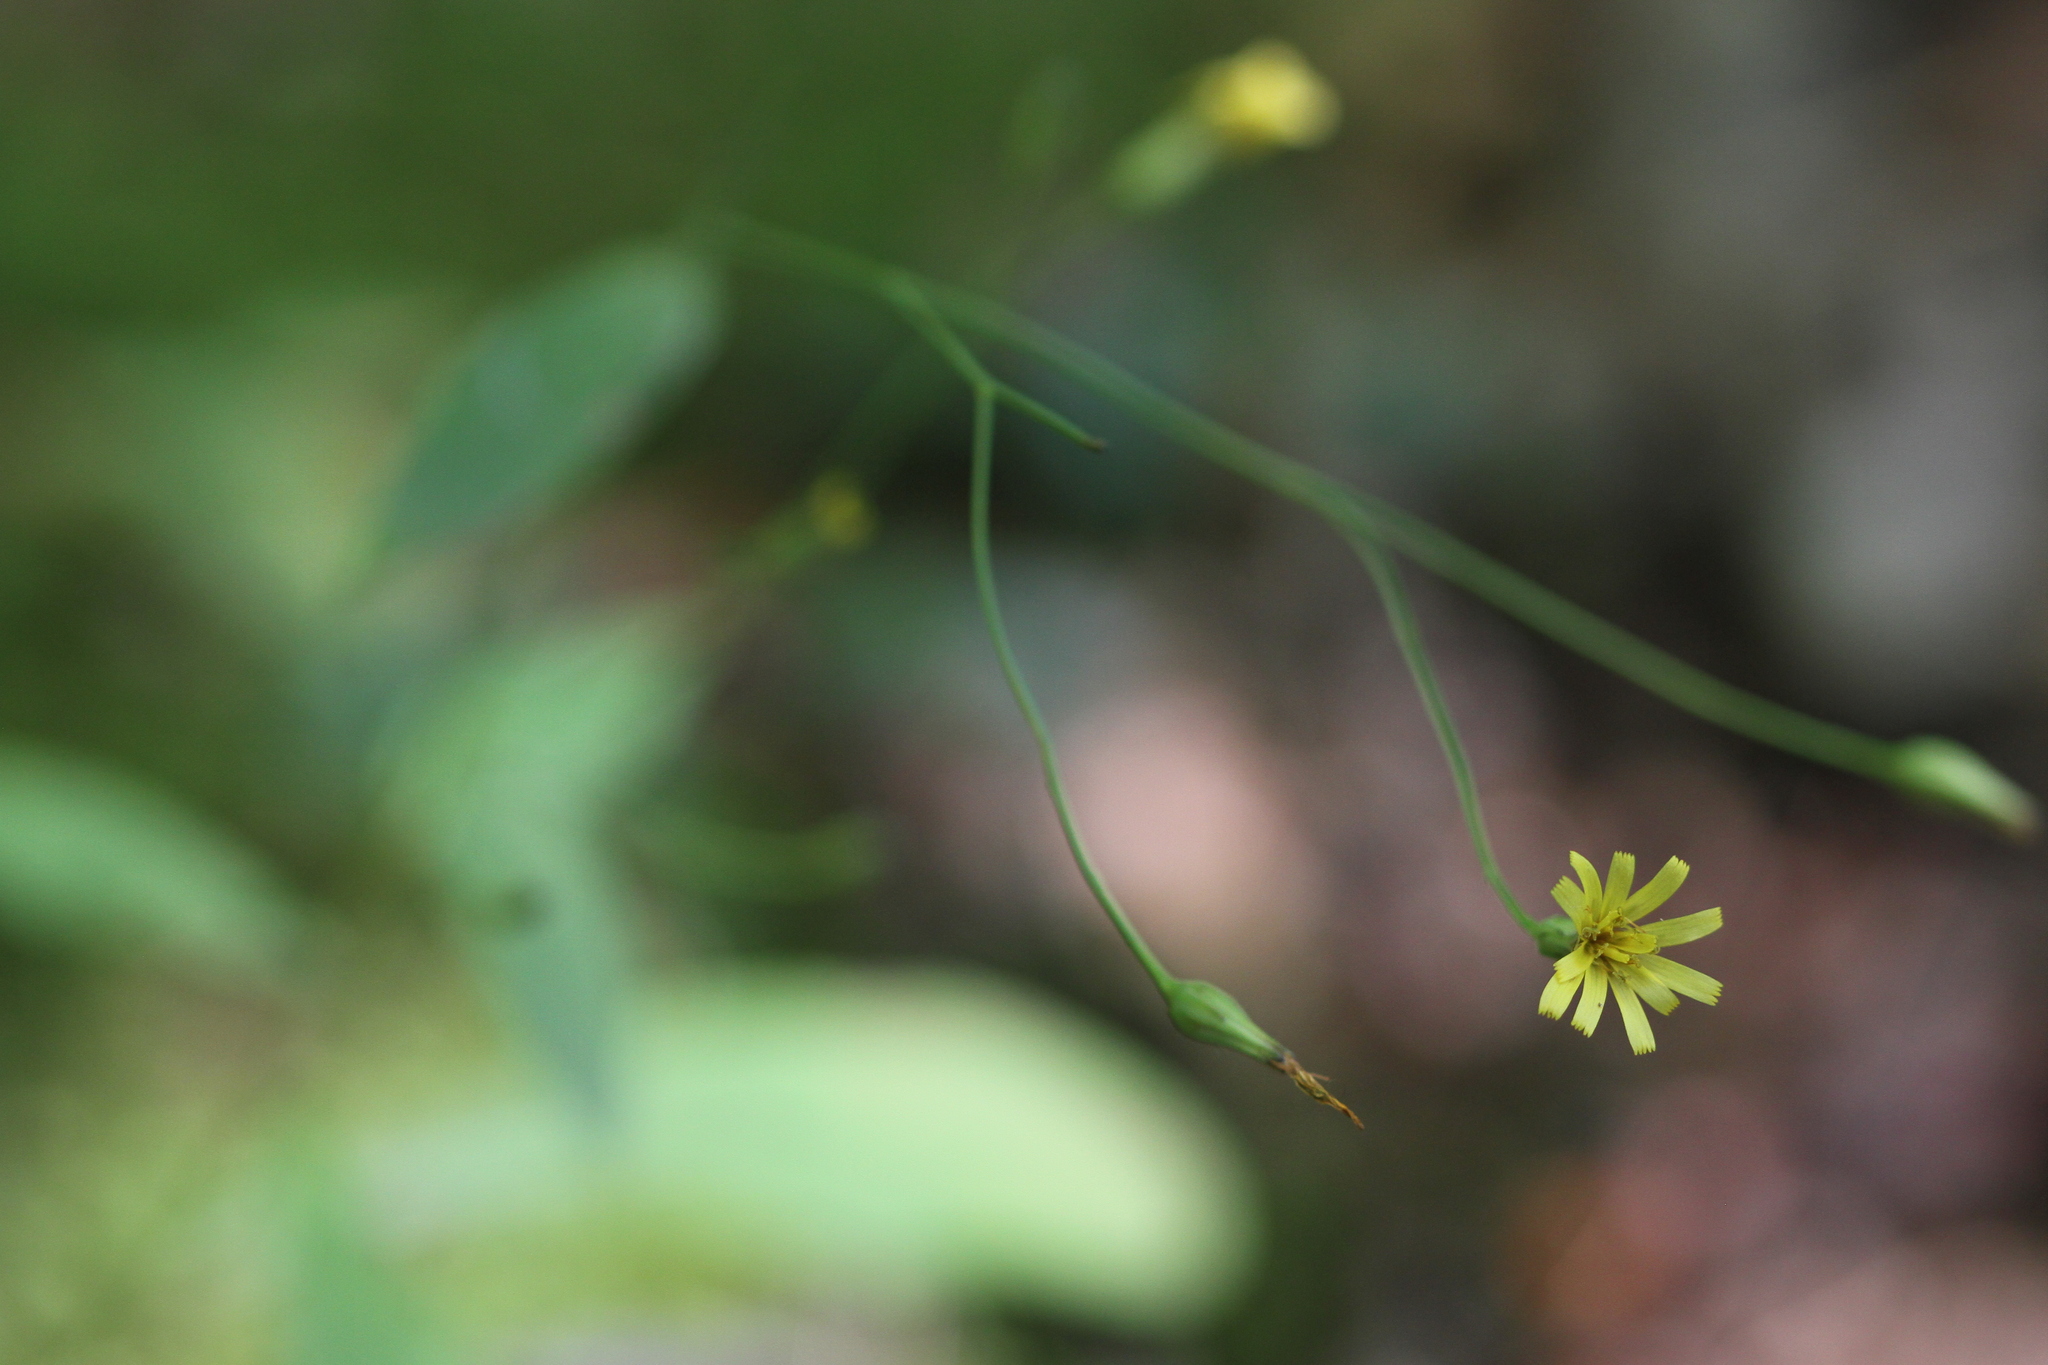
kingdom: Plantae
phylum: Tracheophyta
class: Magnoliopsida
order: Asterales
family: Asteraceae
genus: Hieracium
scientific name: Hieracium paniculatum
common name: Allegheny hawkweed
